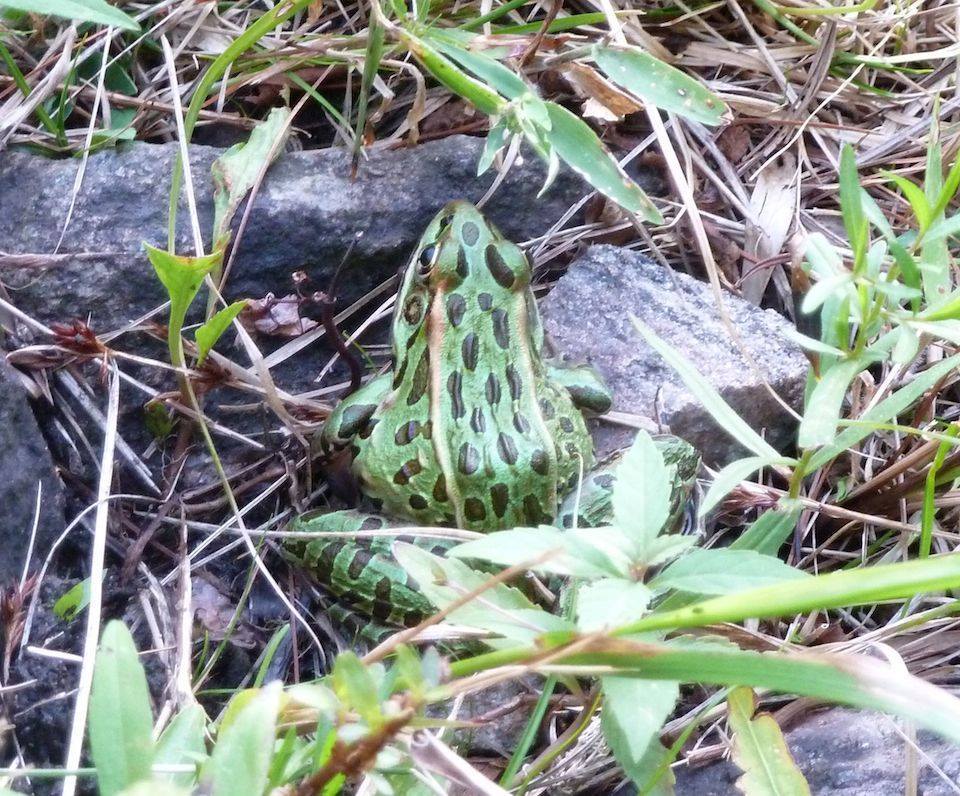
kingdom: Animalia
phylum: Chordata
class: Amphibia
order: Anura
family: Ranidae
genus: Lithobates
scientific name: Lithobates pipiens
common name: Northern leopard frog
